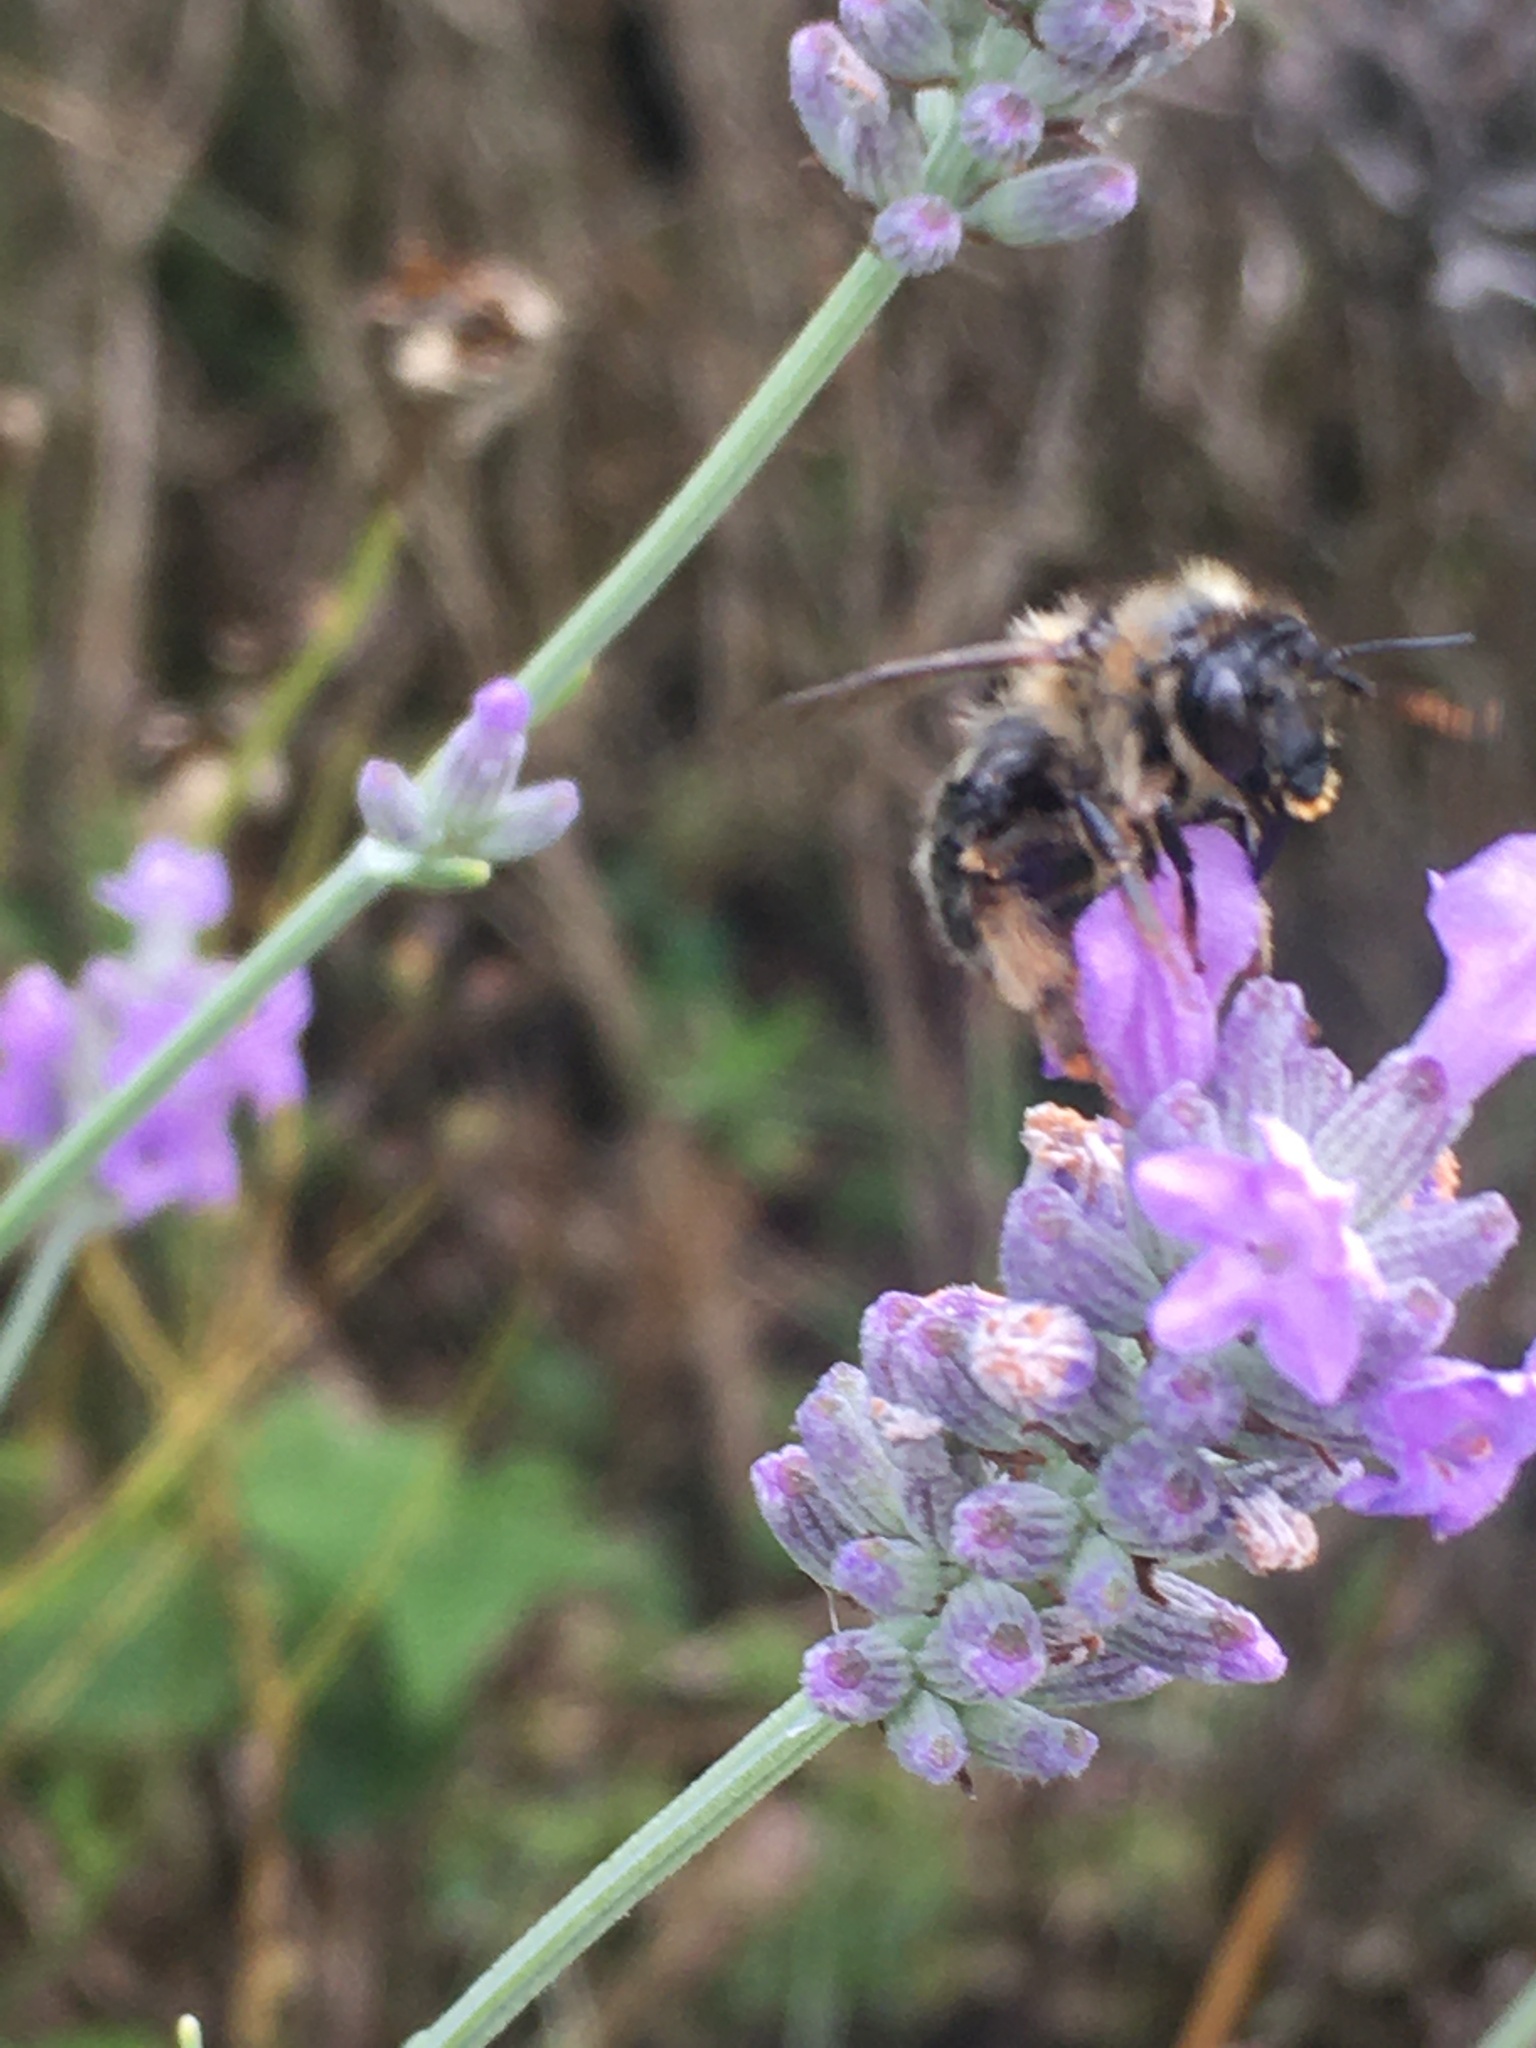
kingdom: Animalia
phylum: Arthropoda
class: Insecta
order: Hymenoptera
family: Apidae
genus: Anthophora
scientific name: Anthophora furcata
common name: Fork-tailed flower bee
